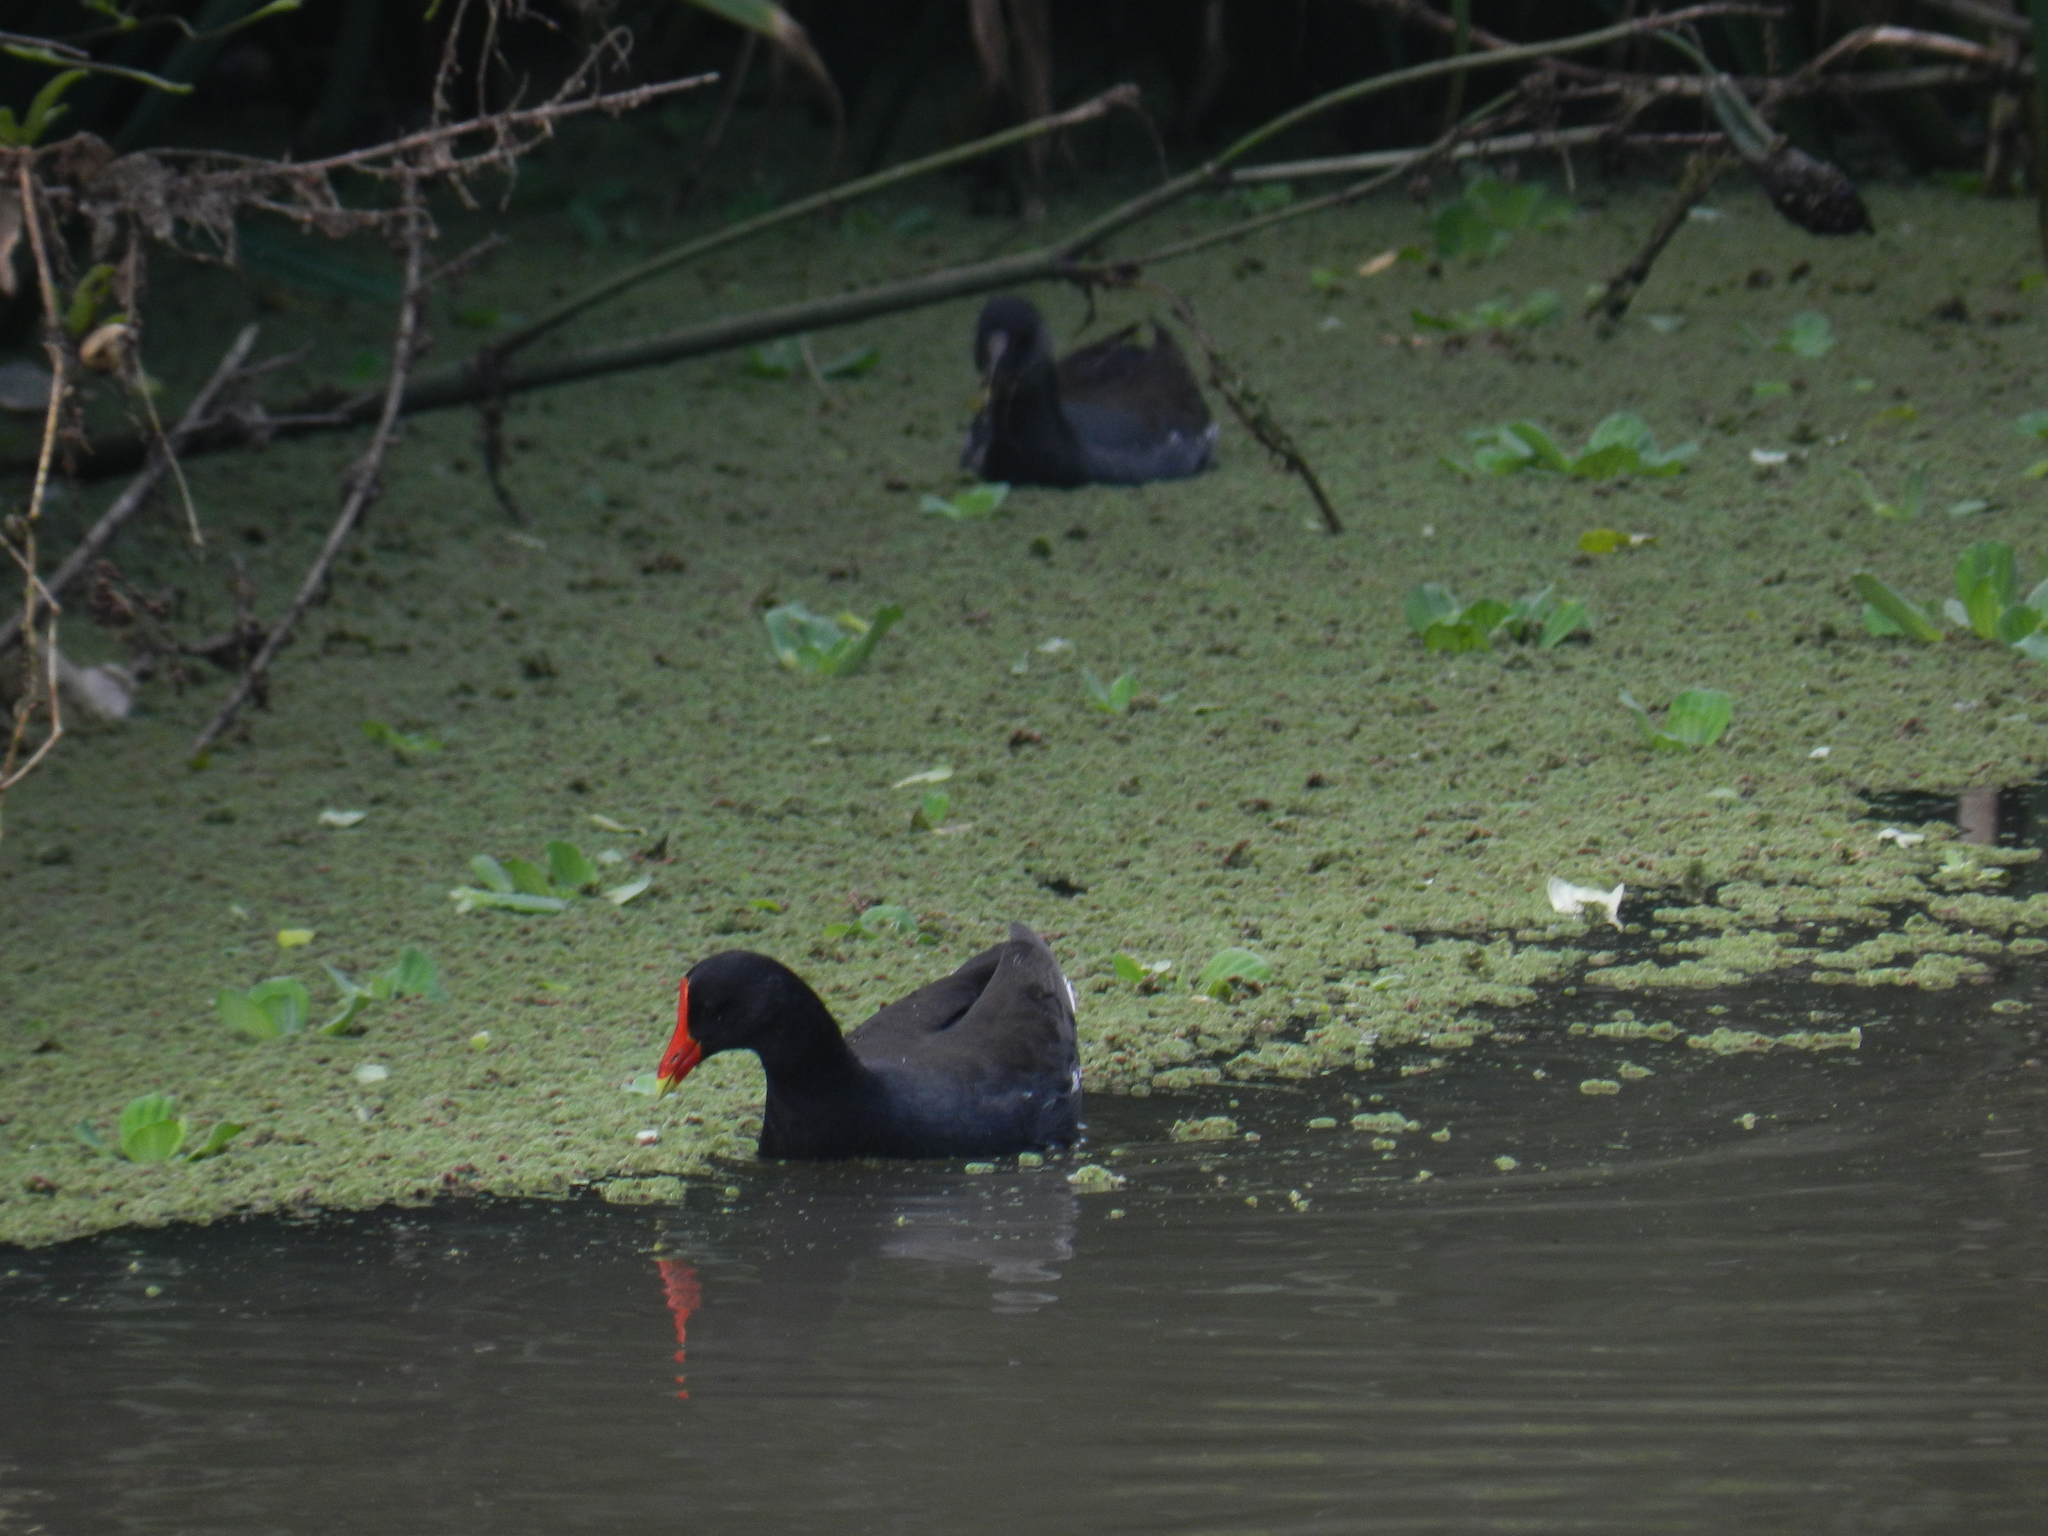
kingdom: Animalia
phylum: Chordata
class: Aves
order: Gruiformes
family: Rallidae
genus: Gallinula
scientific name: Gallinula chloropus
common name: Common moorhen
